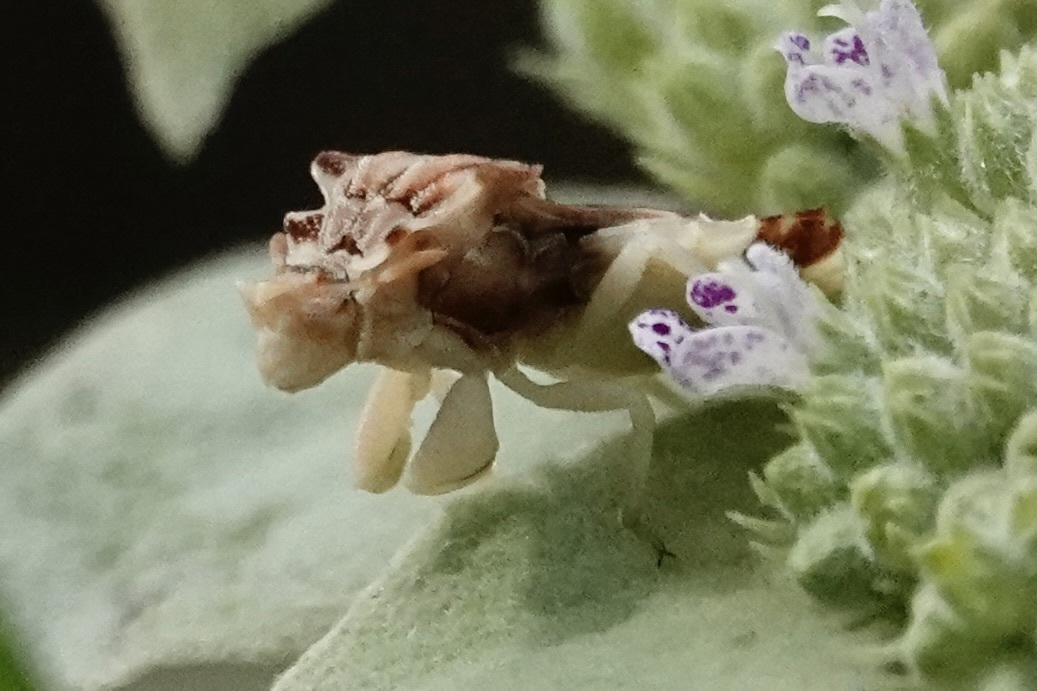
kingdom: Animalia
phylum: Arthropoda
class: Insecta
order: Hemiptera
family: Reduviidae
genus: Phymata
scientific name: Phymata fasciata
